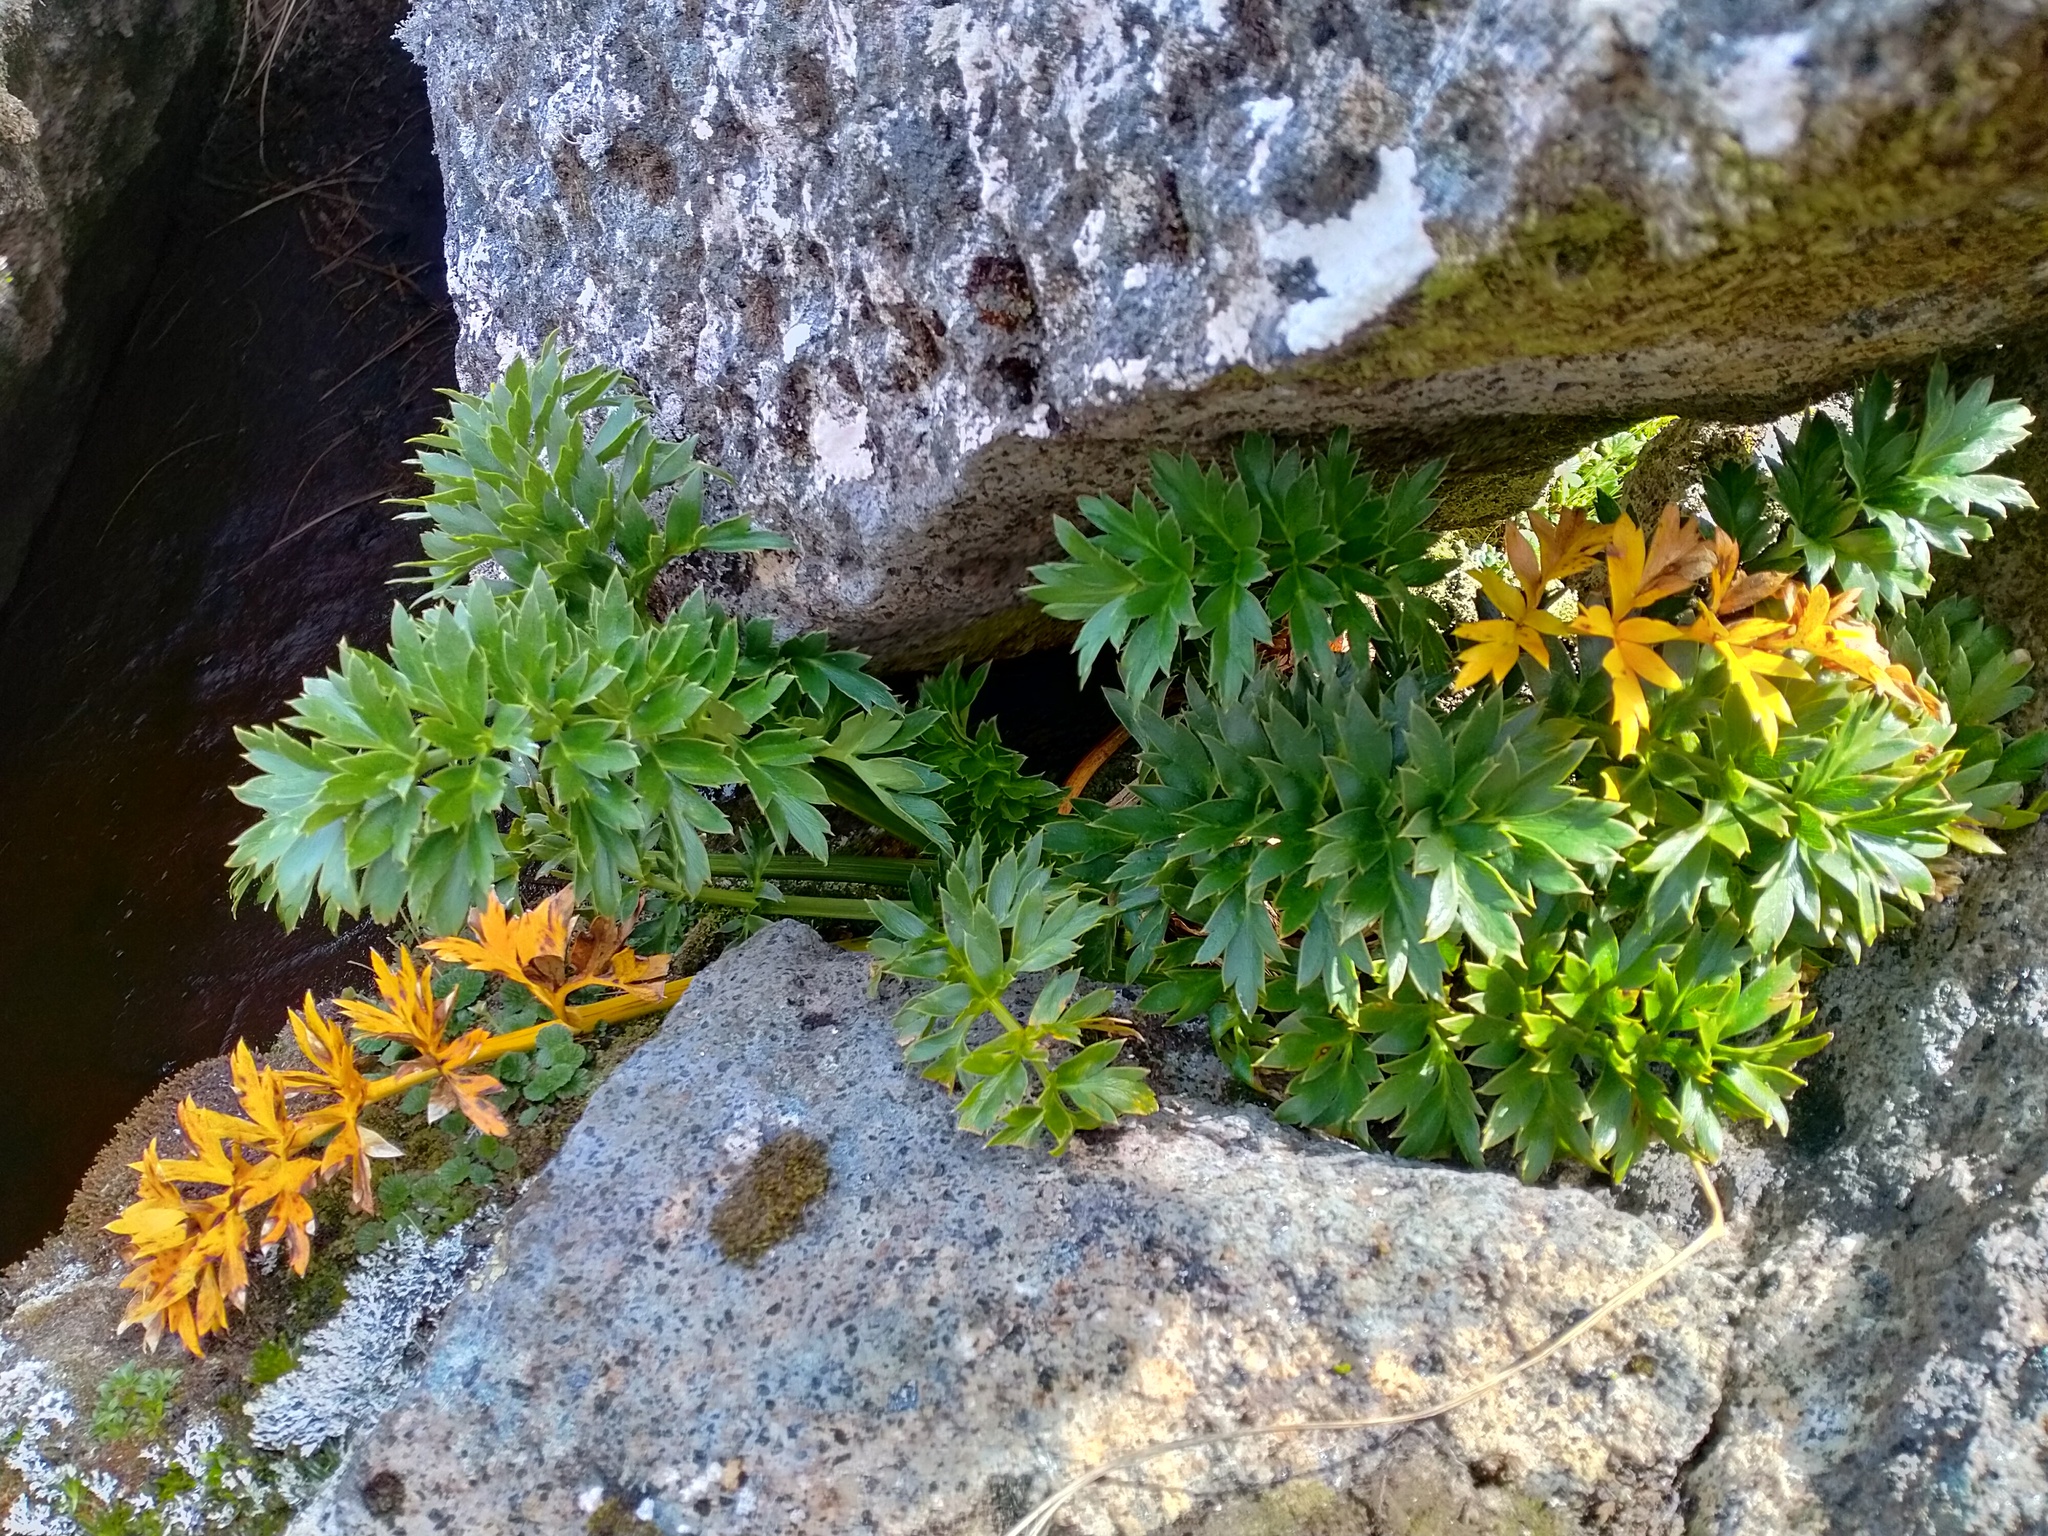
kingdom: Plantae
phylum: Tracheophyta
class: Magnoliopsida
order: Apiales
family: Apiaceae
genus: Anisotome
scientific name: Anisotome latifolia
